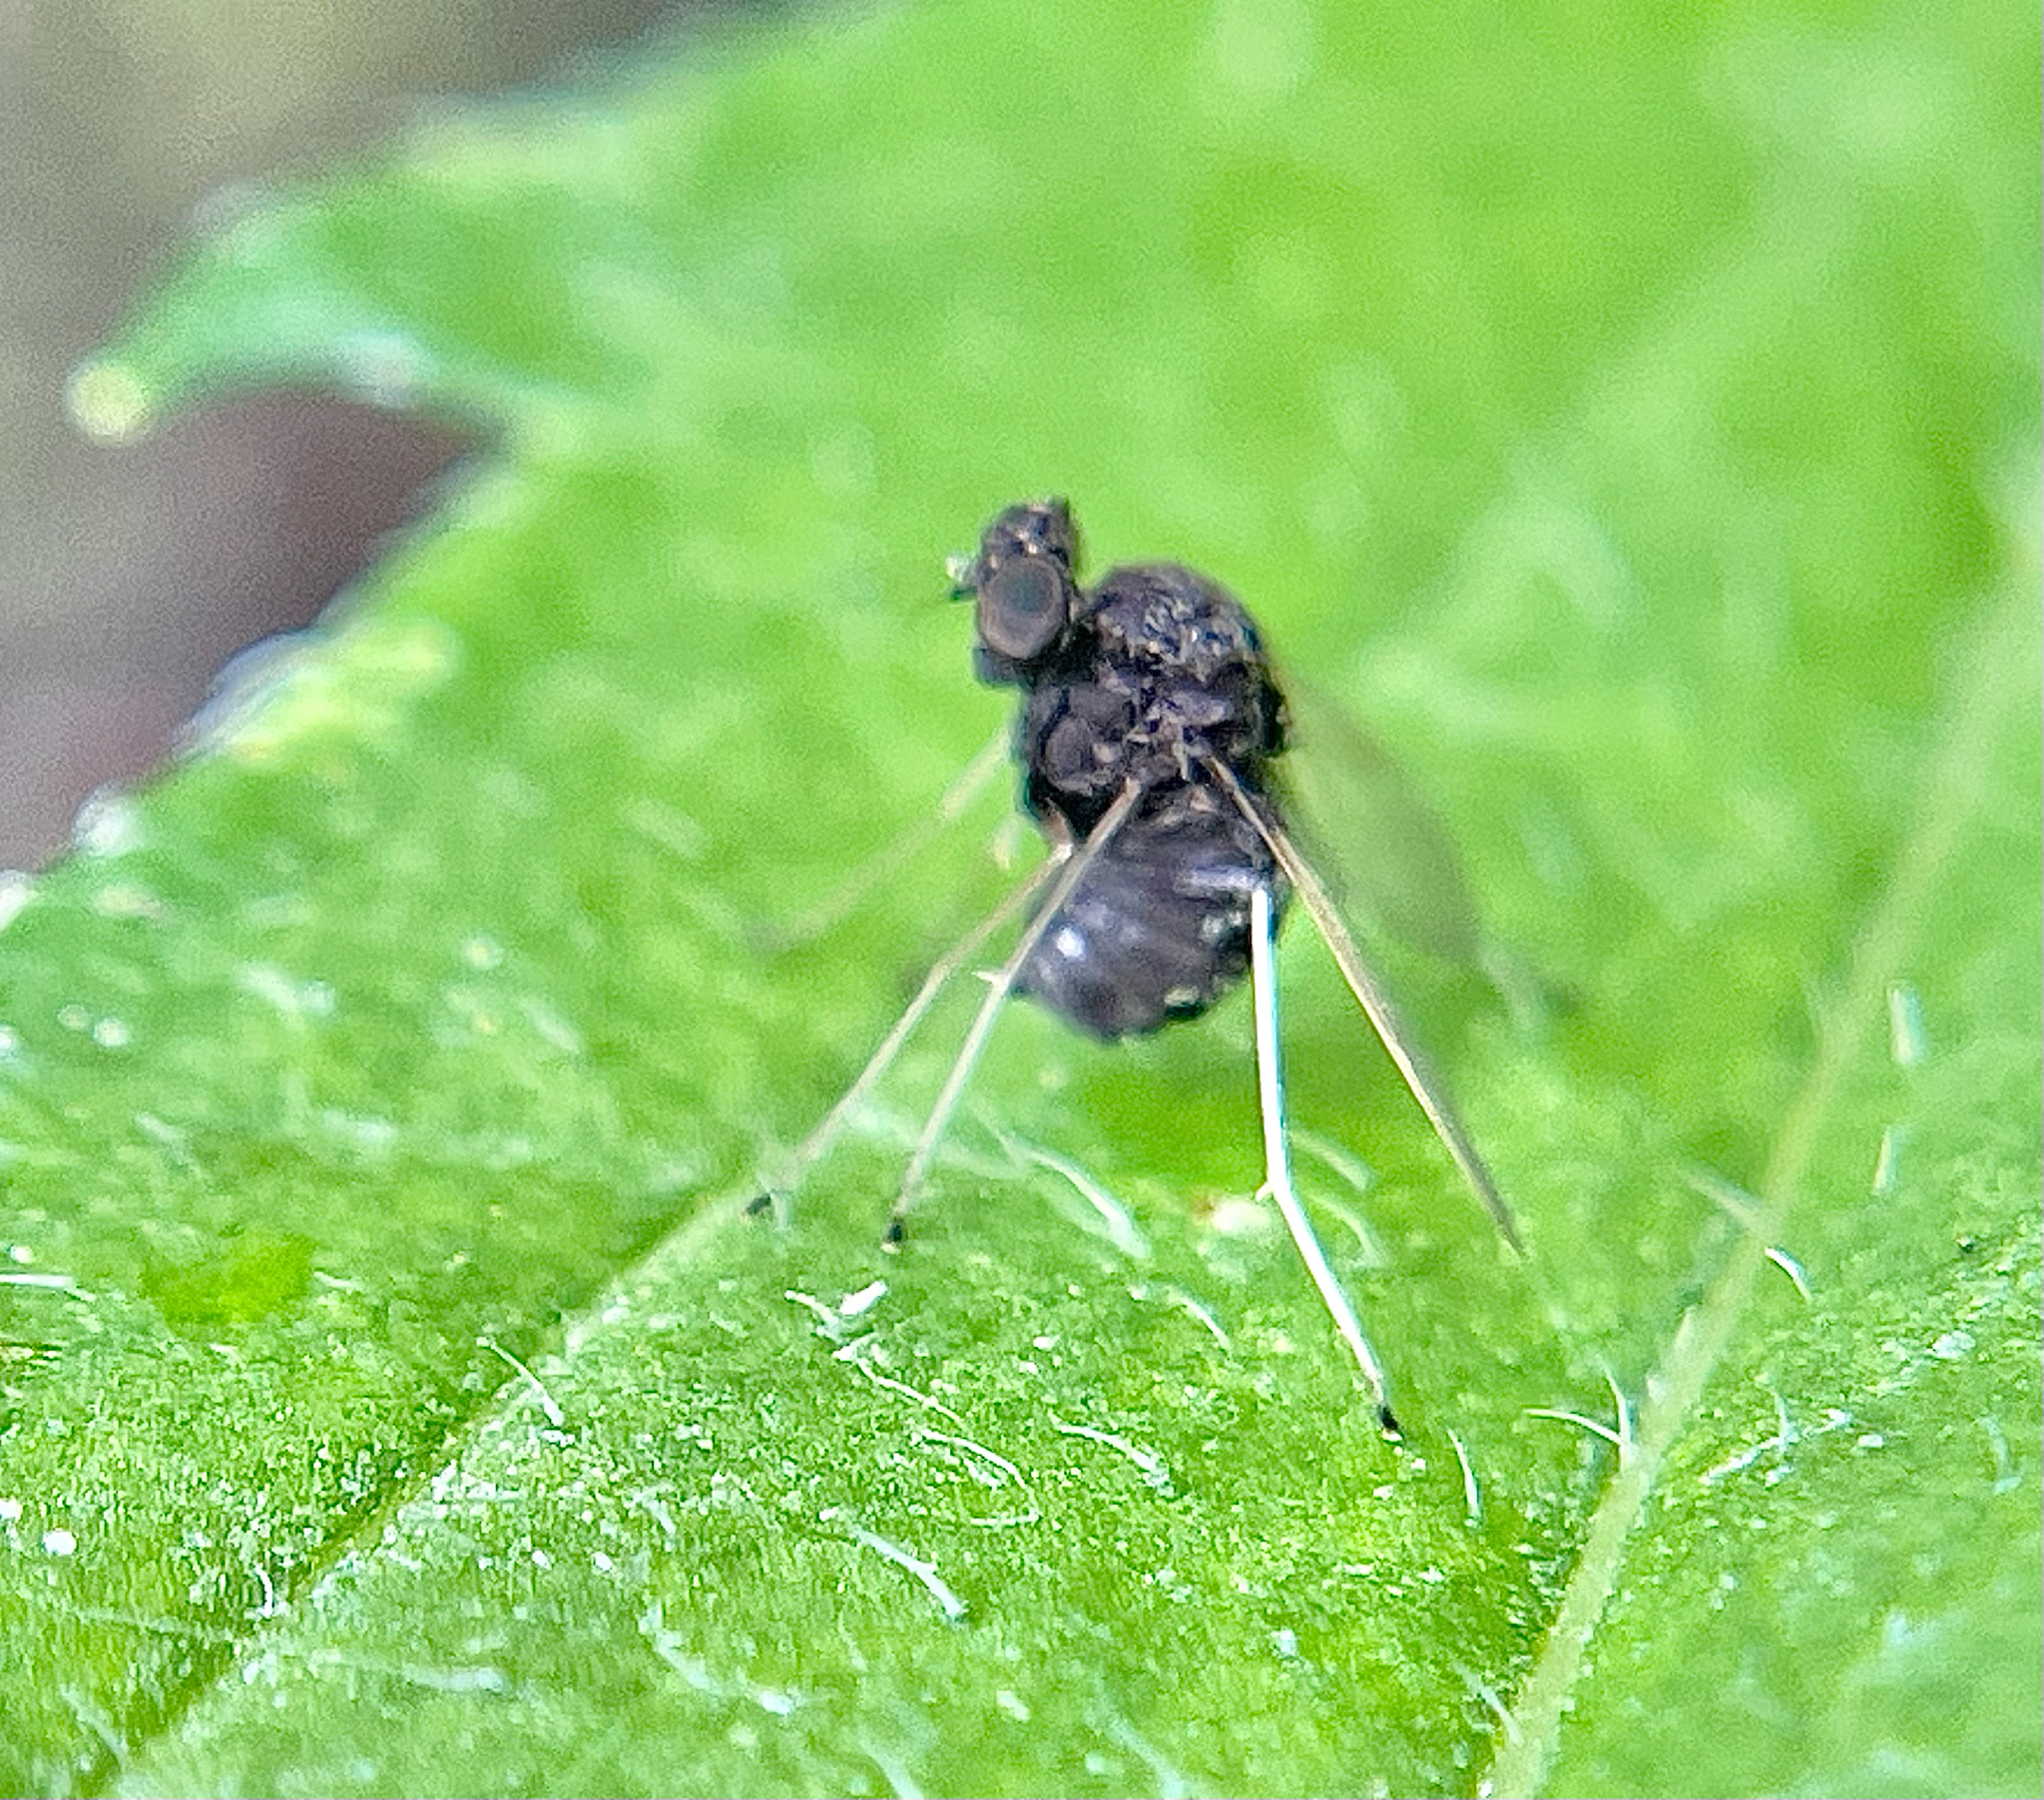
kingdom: Animalia
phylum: Arthropoda
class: Insecta
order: Diptera
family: Rhagionidae
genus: Chrysopilus
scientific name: Chrysopilus basilaris
